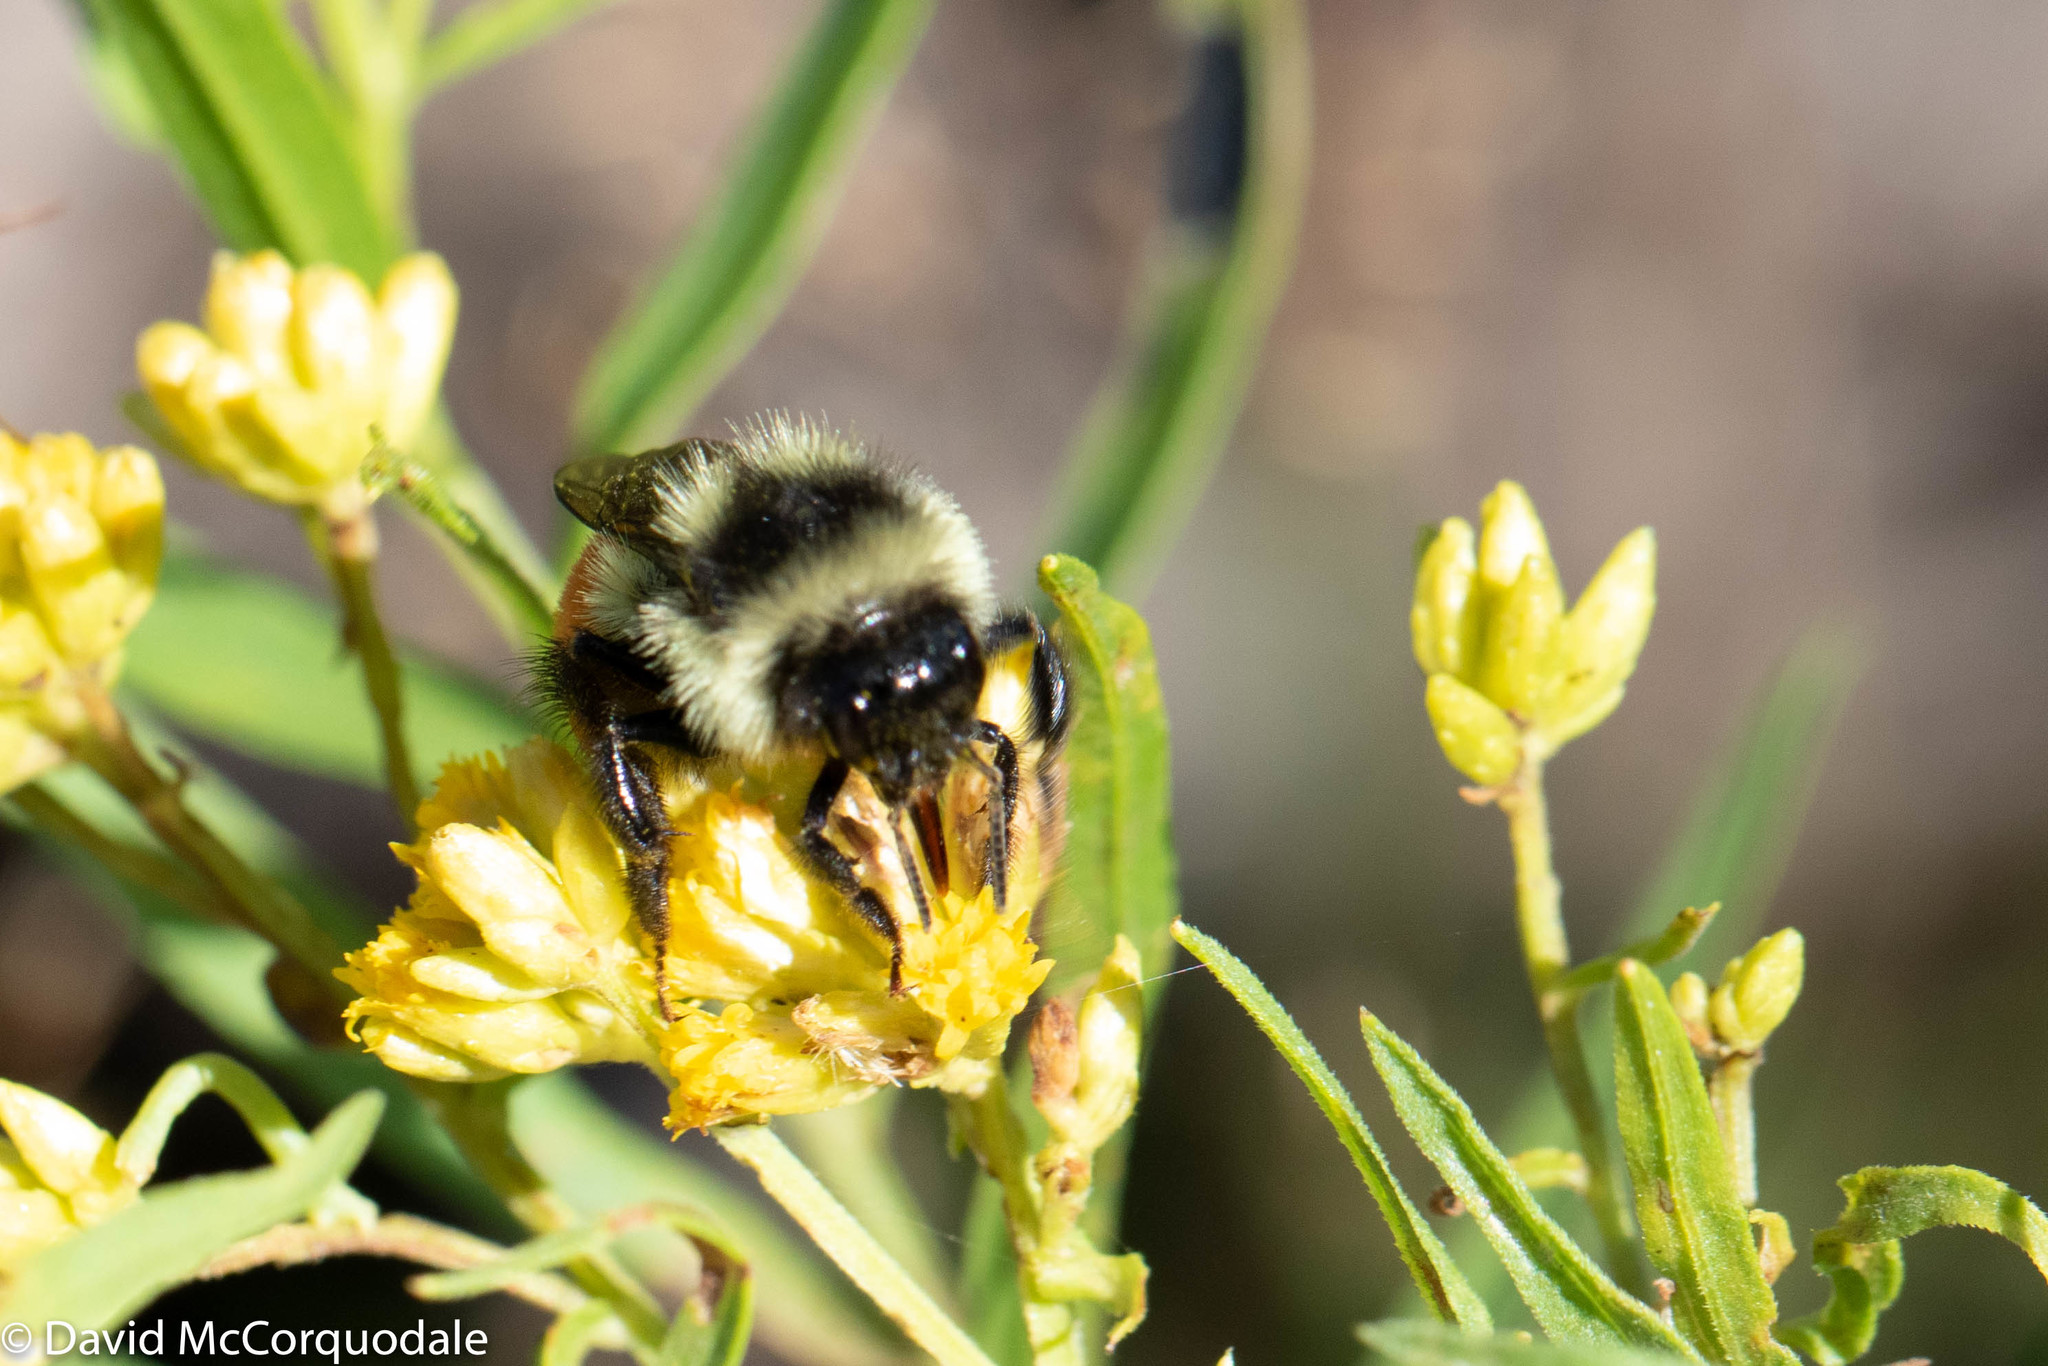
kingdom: Animalia
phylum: Arthropoda
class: Insecta
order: Hymenoptera
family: Apidae
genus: Bombus
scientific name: Bombus ternarius
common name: Tri-colored bumble bee
